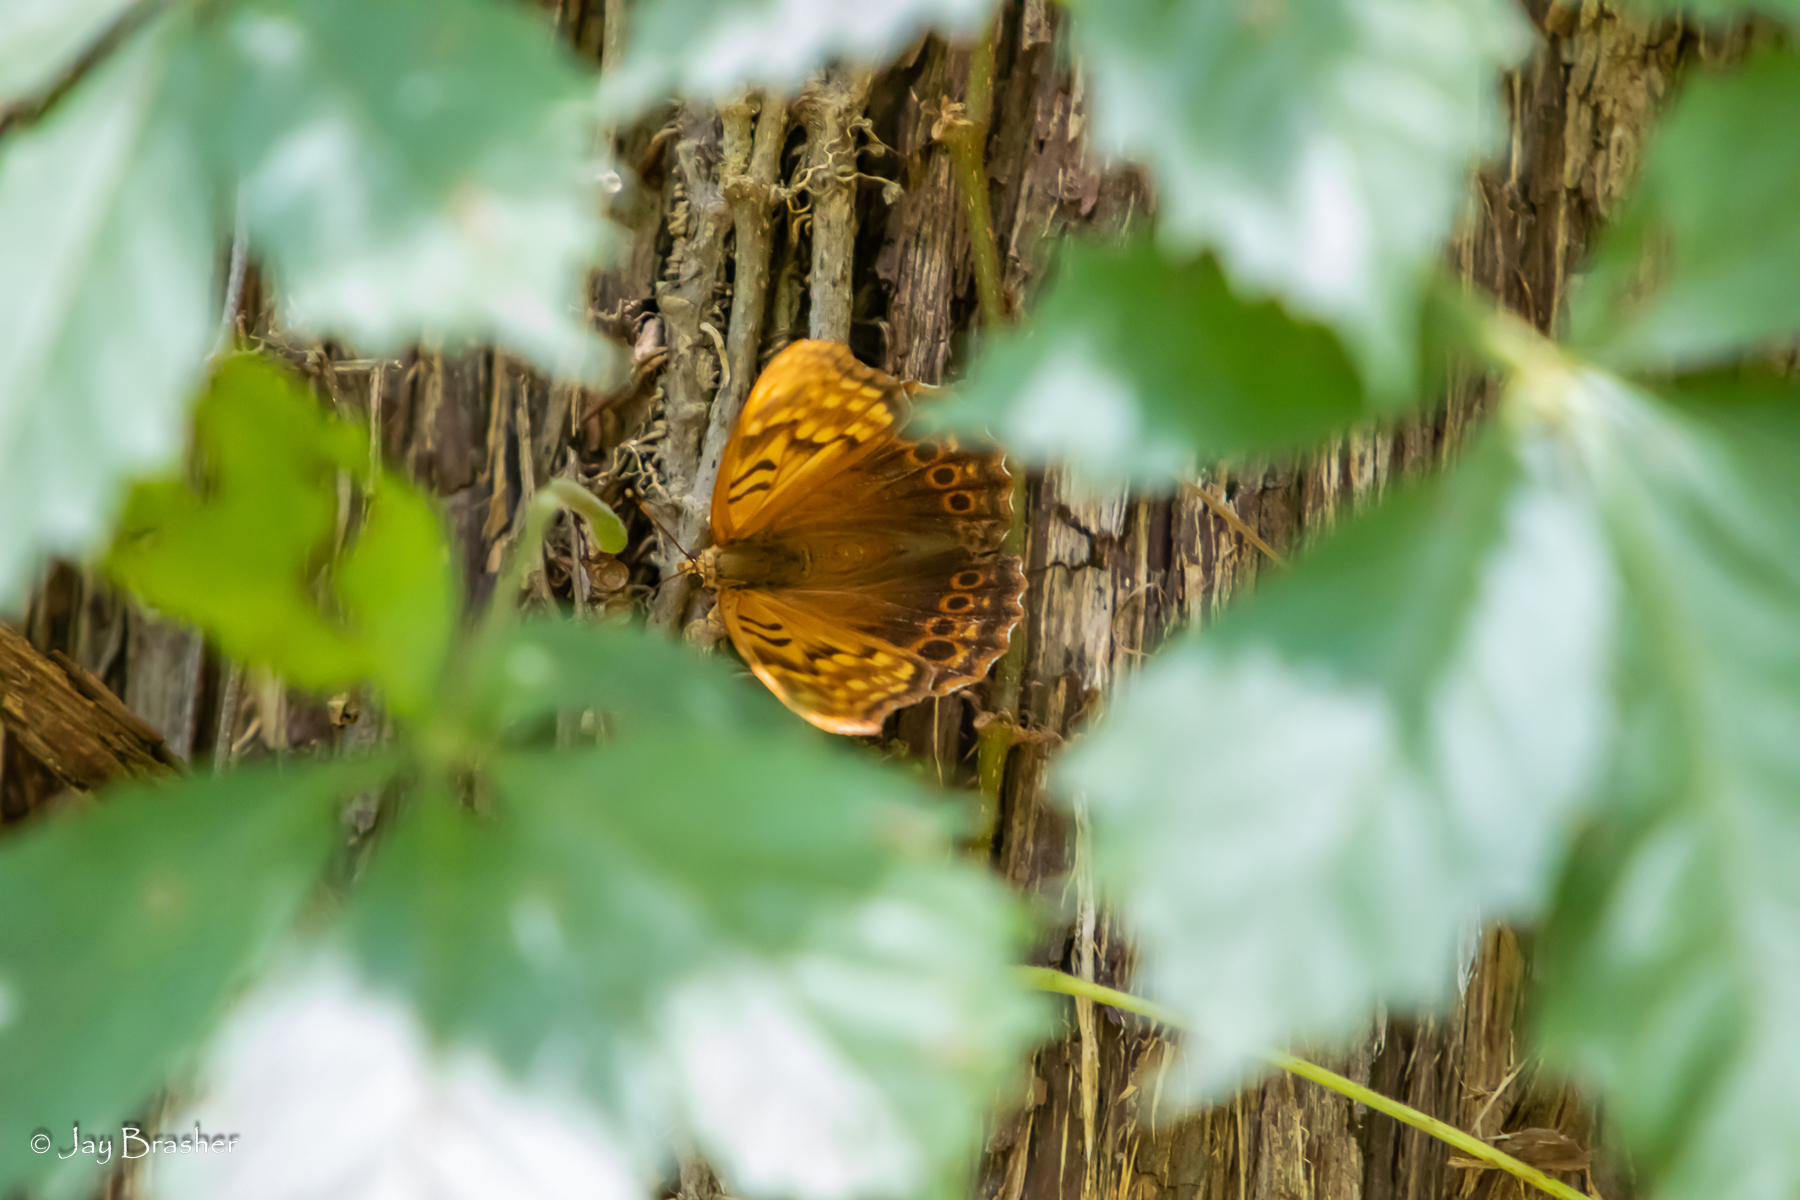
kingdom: Animalia
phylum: Arthropoda
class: Insecta
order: Lepidoptera
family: Nymphalidae
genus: Asterocampa
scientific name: Asterocampa clyton
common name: Tawny emperor
